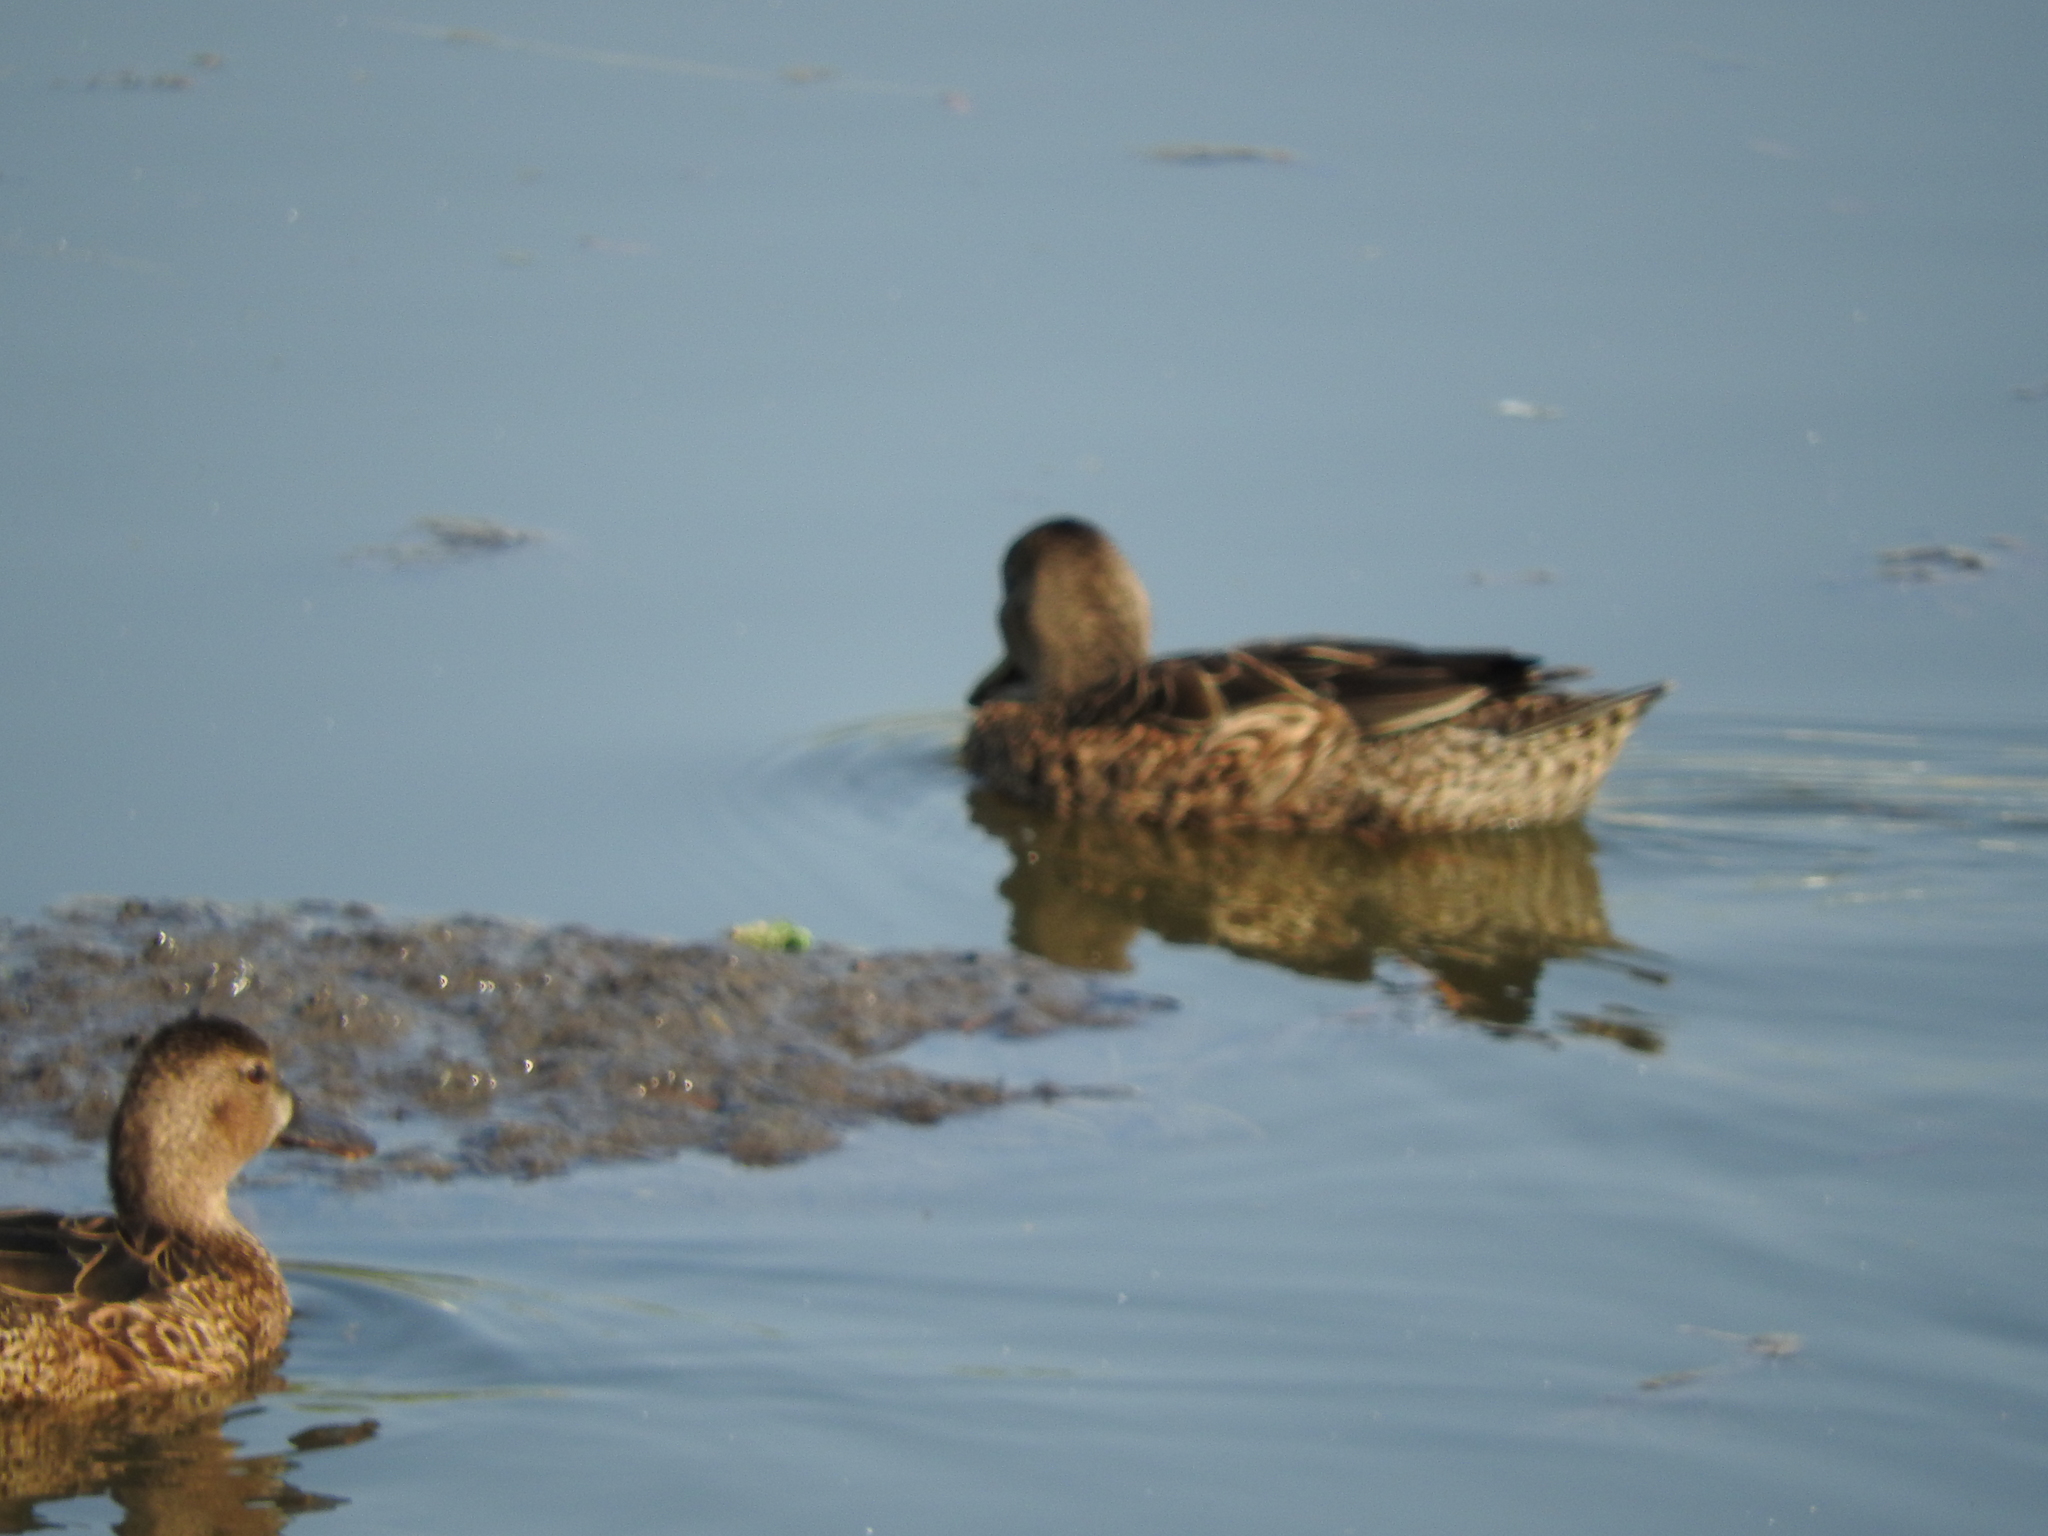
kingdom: Animalia
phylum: Chordata
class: Aves
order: Anseriformes
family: Anatidae
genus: Spatula
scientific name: Spatula discors
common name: Blue-winged teal
